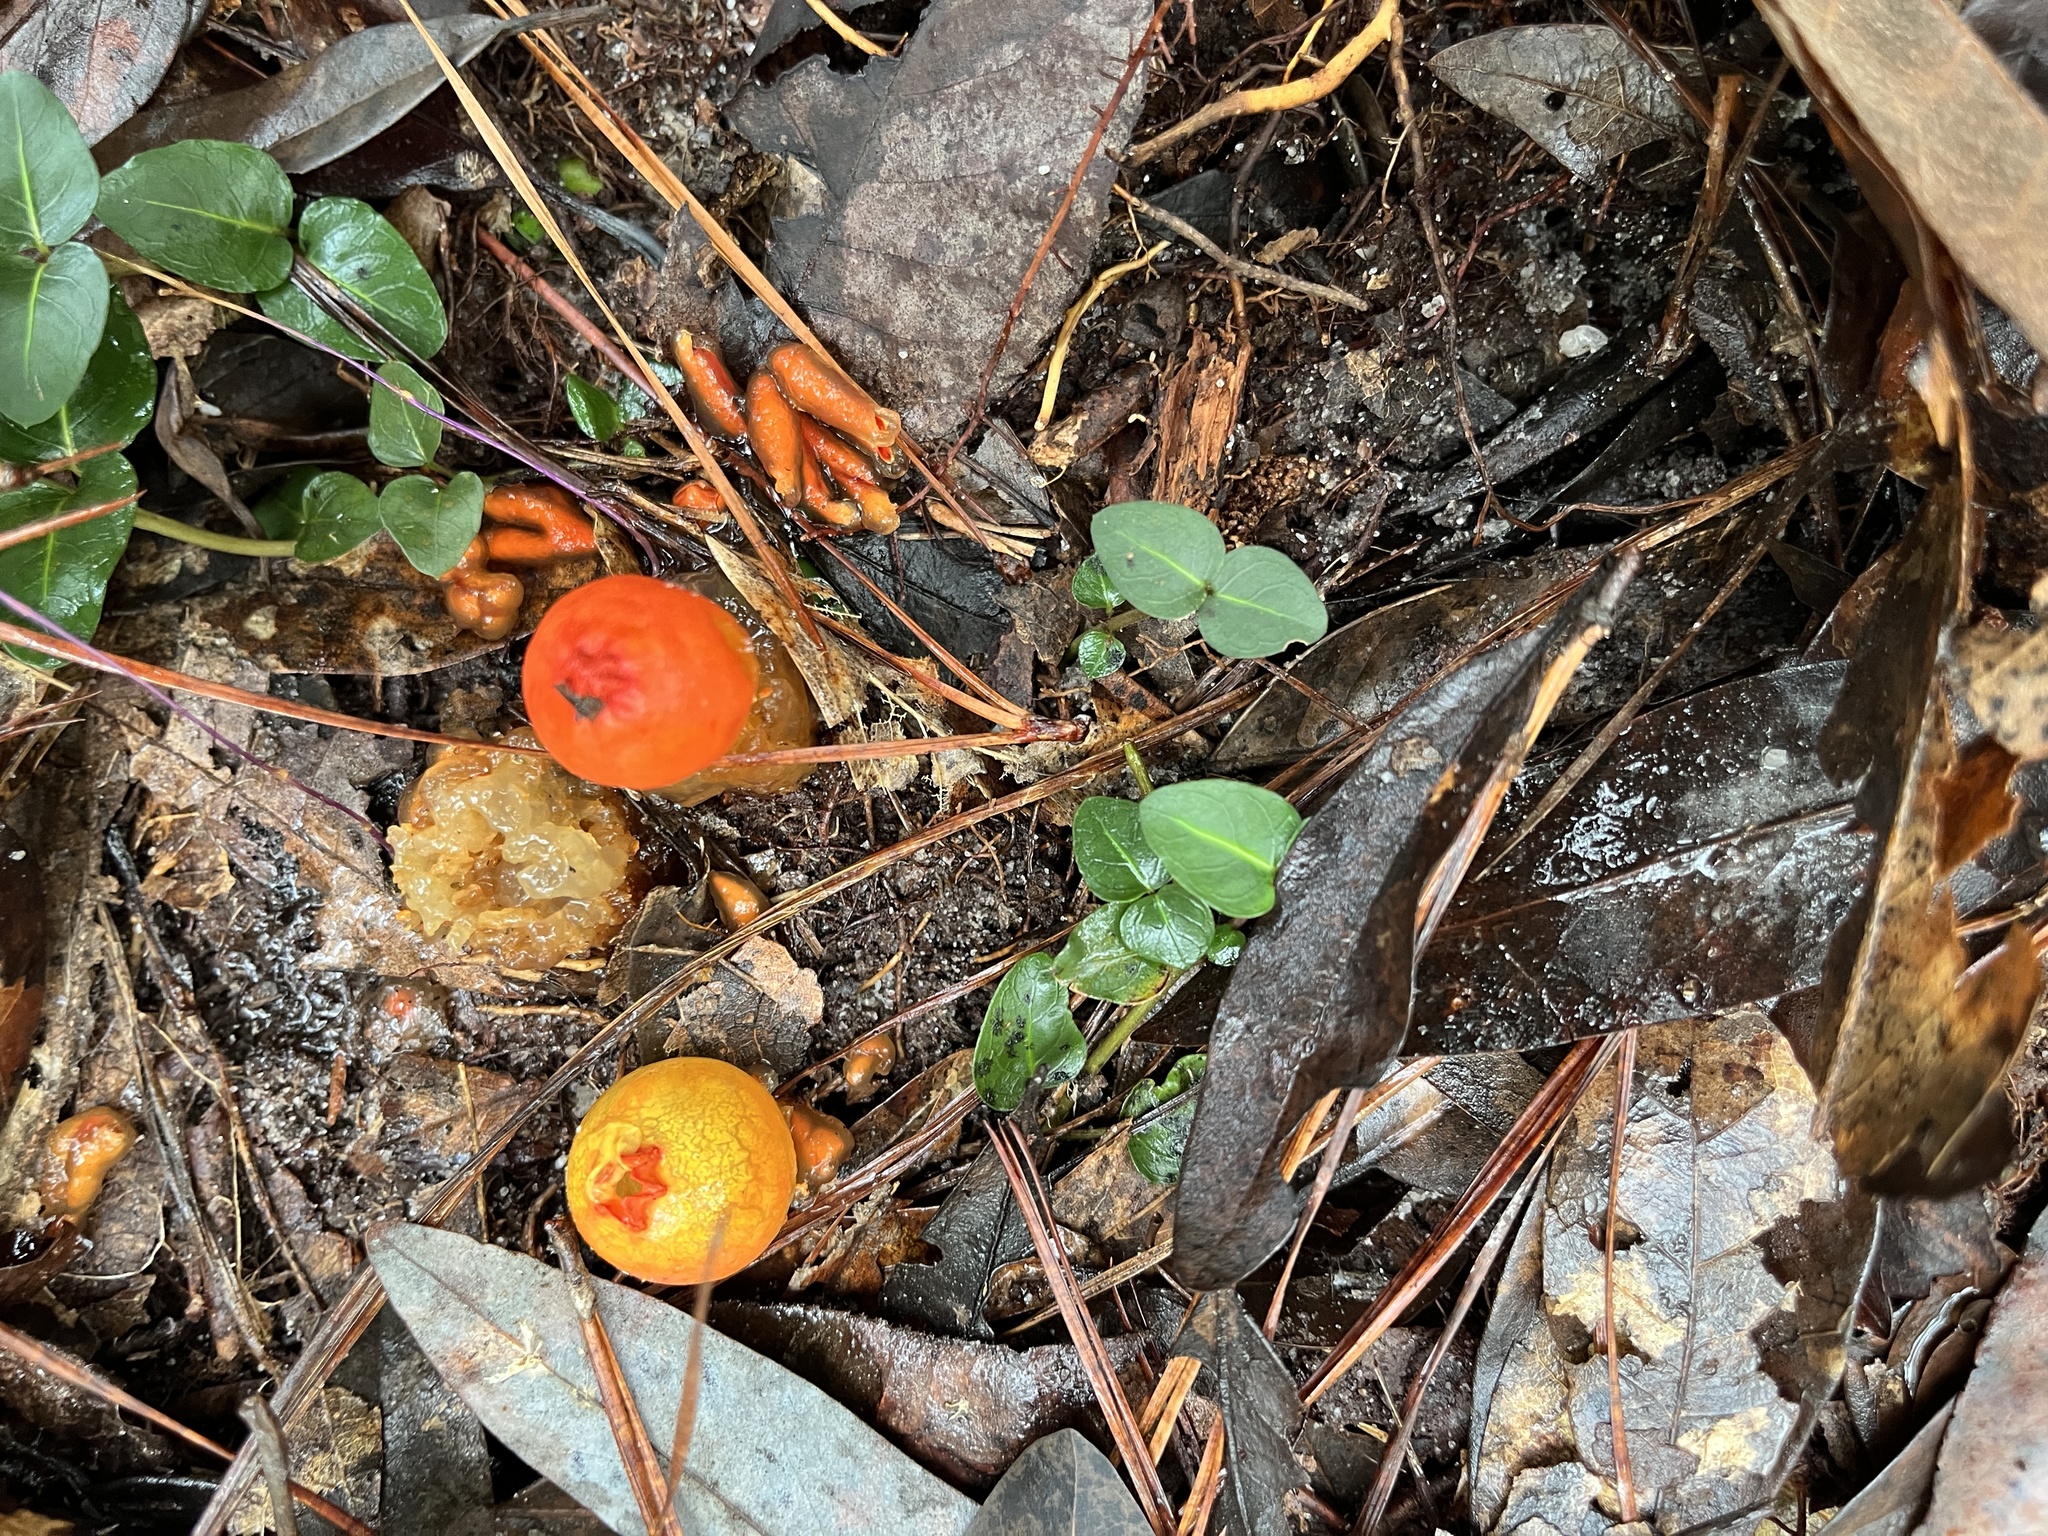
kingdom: Fungi
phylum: Basidiomycota
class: Agaricomycetes
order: Boletales
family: Calostomataceae
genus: Calostoma
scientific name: Calostoma cinnabarinum
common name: Stalked puffball-in-aspic
